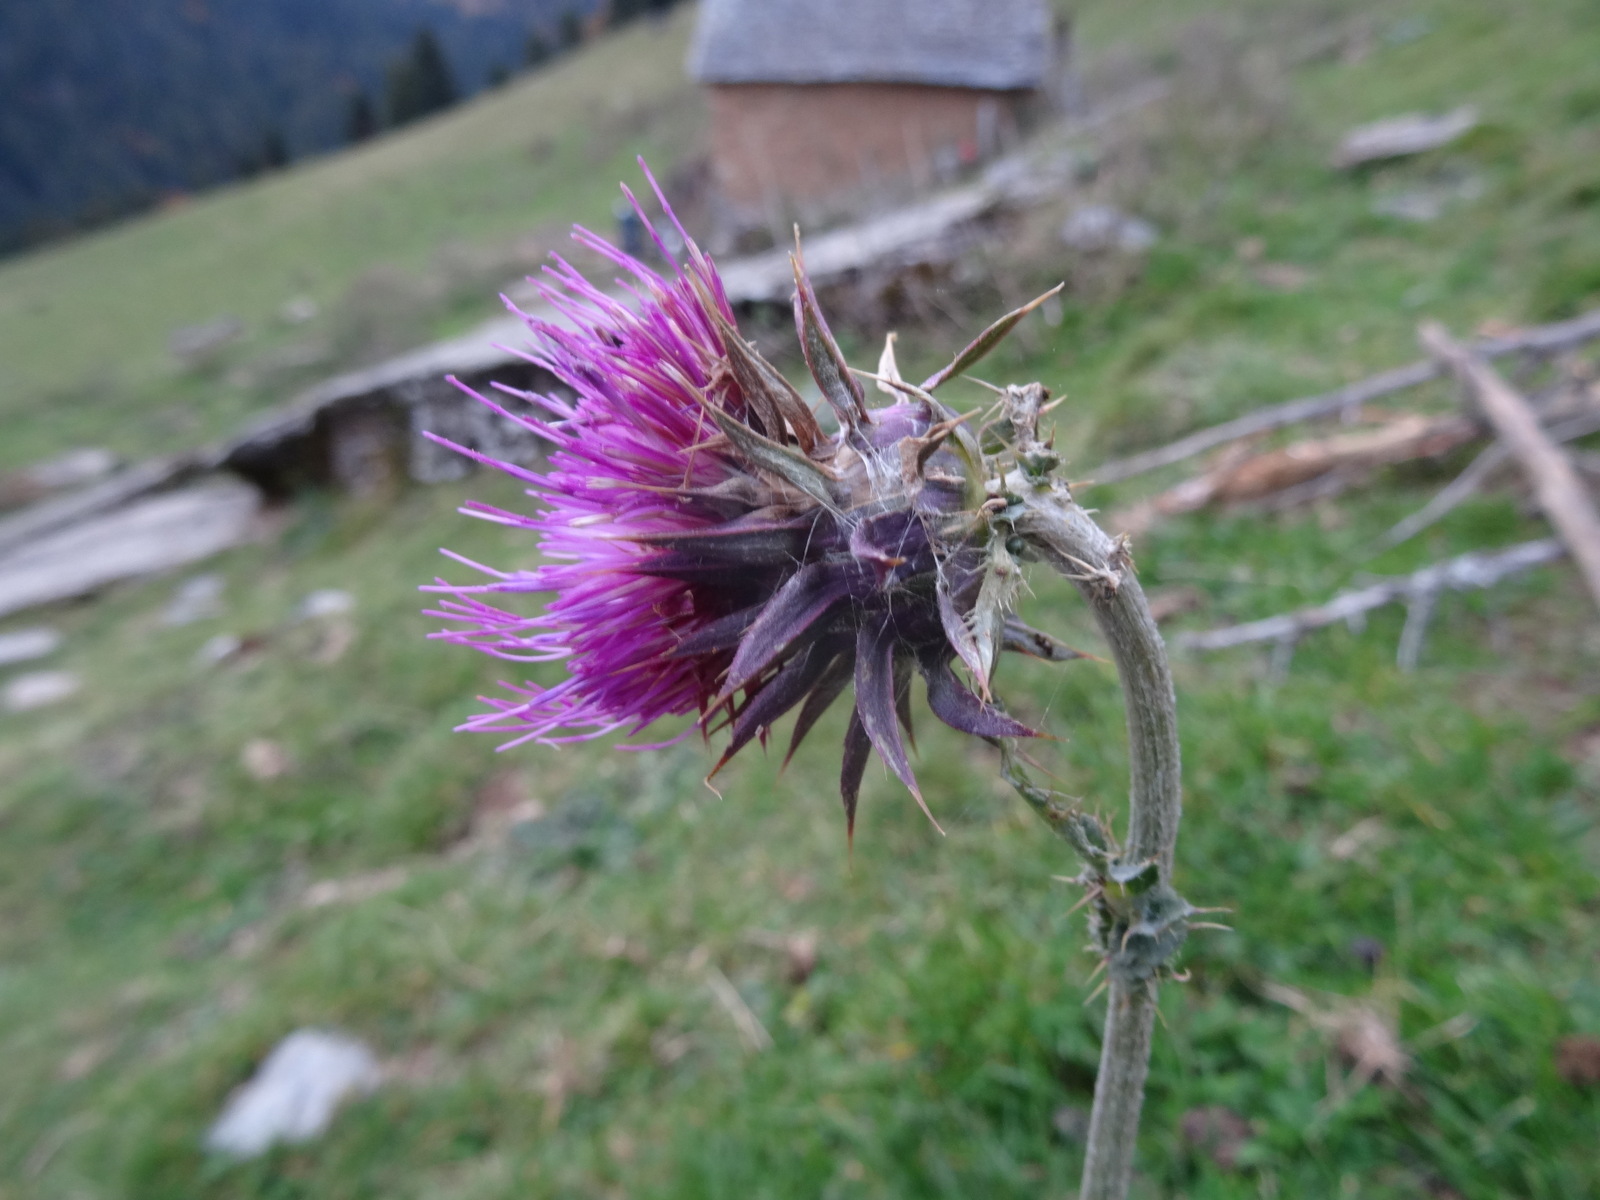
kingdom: Plantae
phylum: Tracheophyta
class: Magnoliopsida
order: Asterales
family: Asteraceae
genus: Carduus
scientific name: Carduus nutans
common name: Musk thistle
